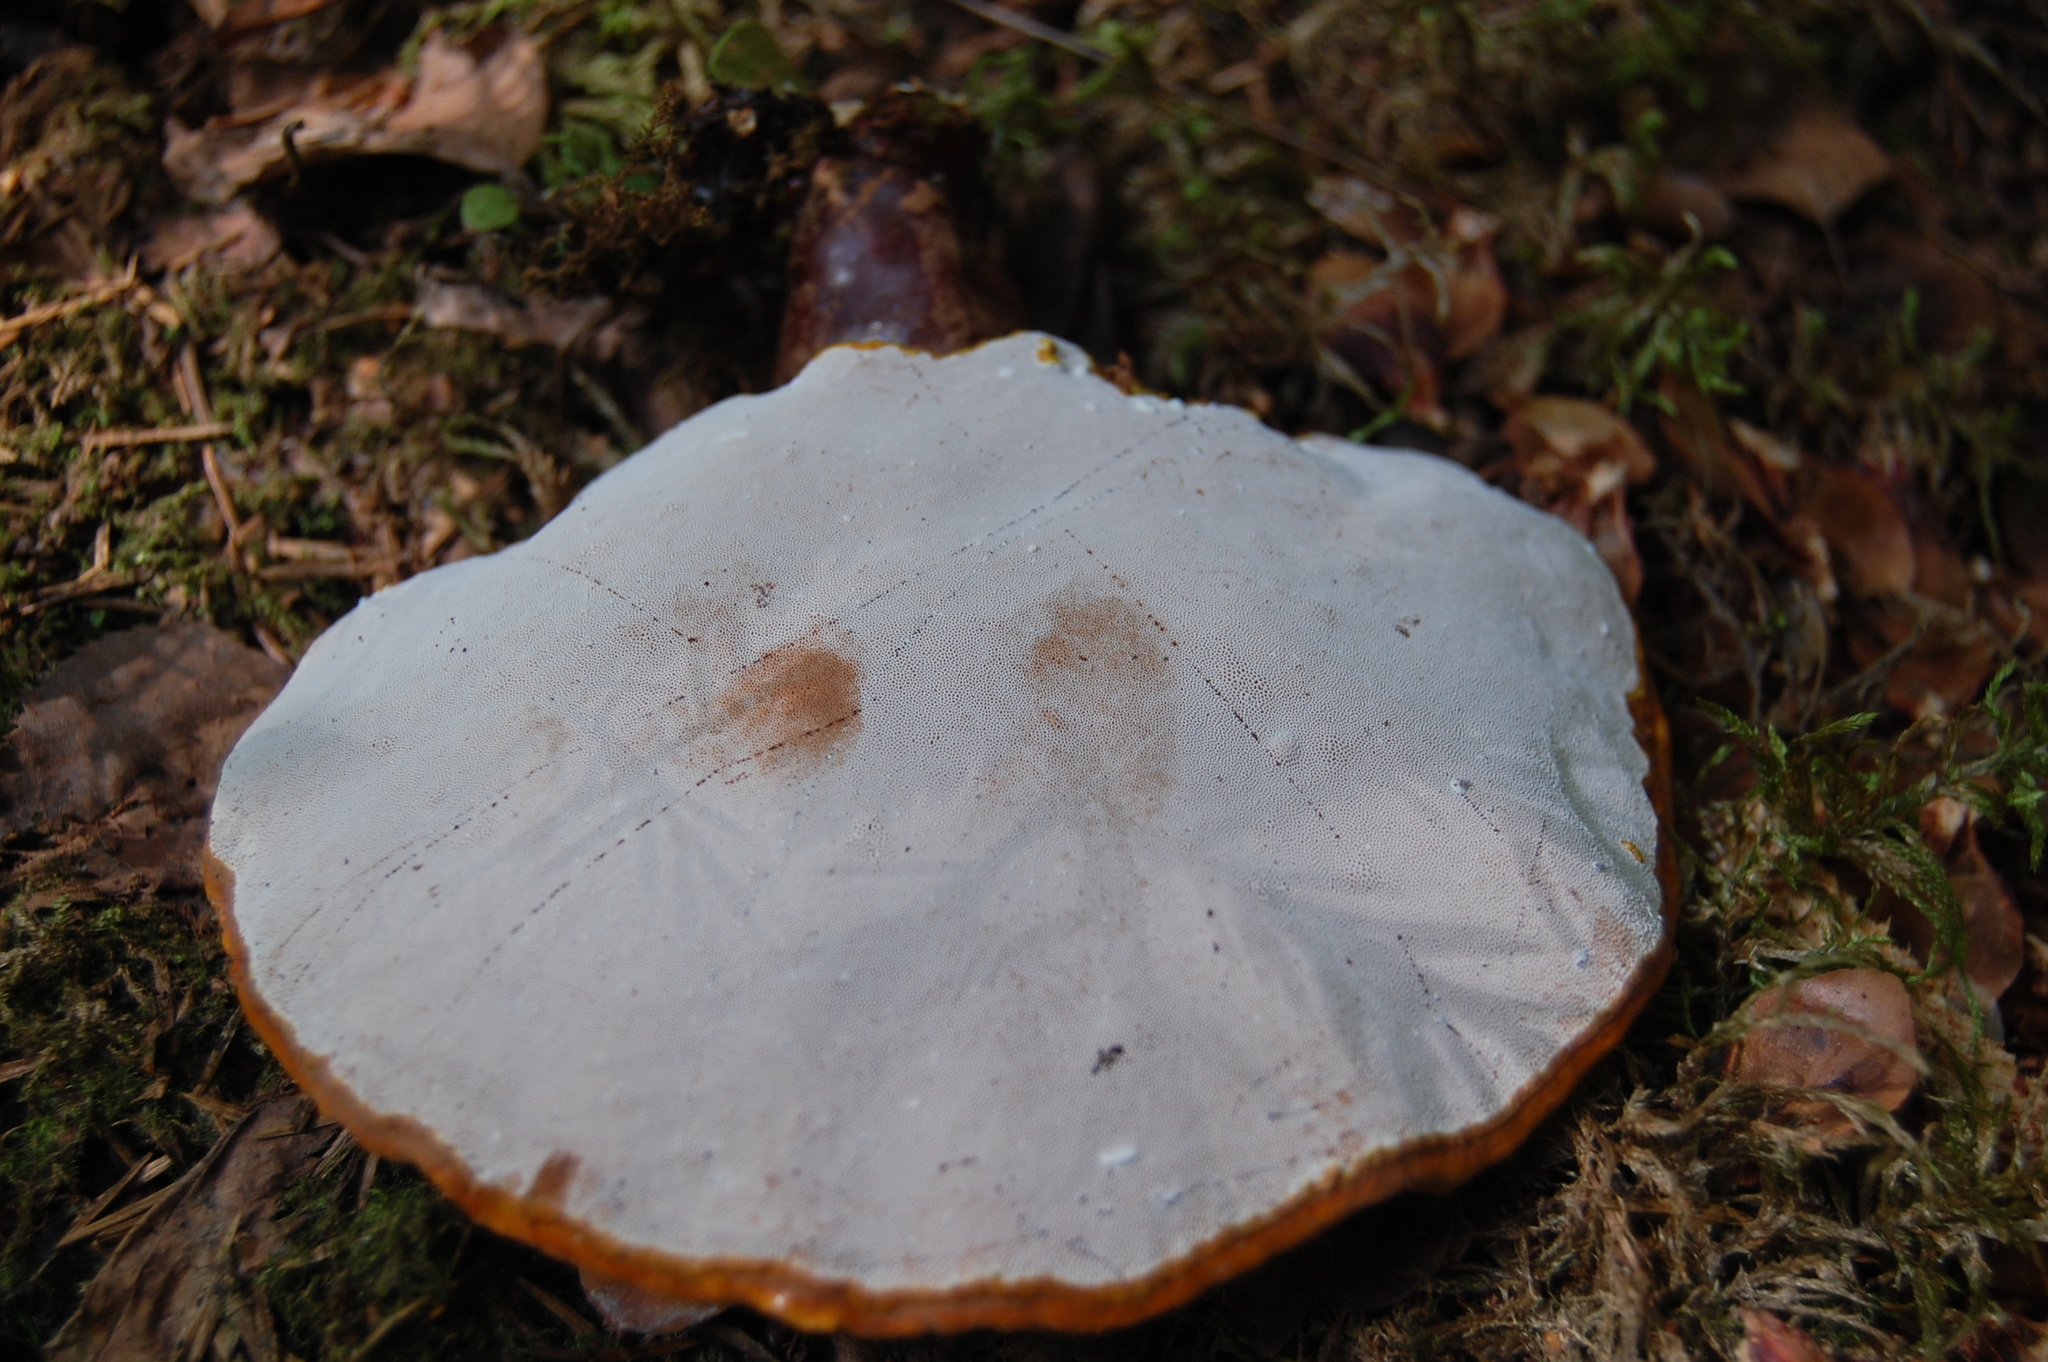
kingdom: Fungi
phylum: Basidiomycota
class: Agaricomycetes
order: Polyporales
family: Polyporaceae
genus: Ganoderma
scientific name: Ganoderma lucidum
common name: Lacquered bracket
